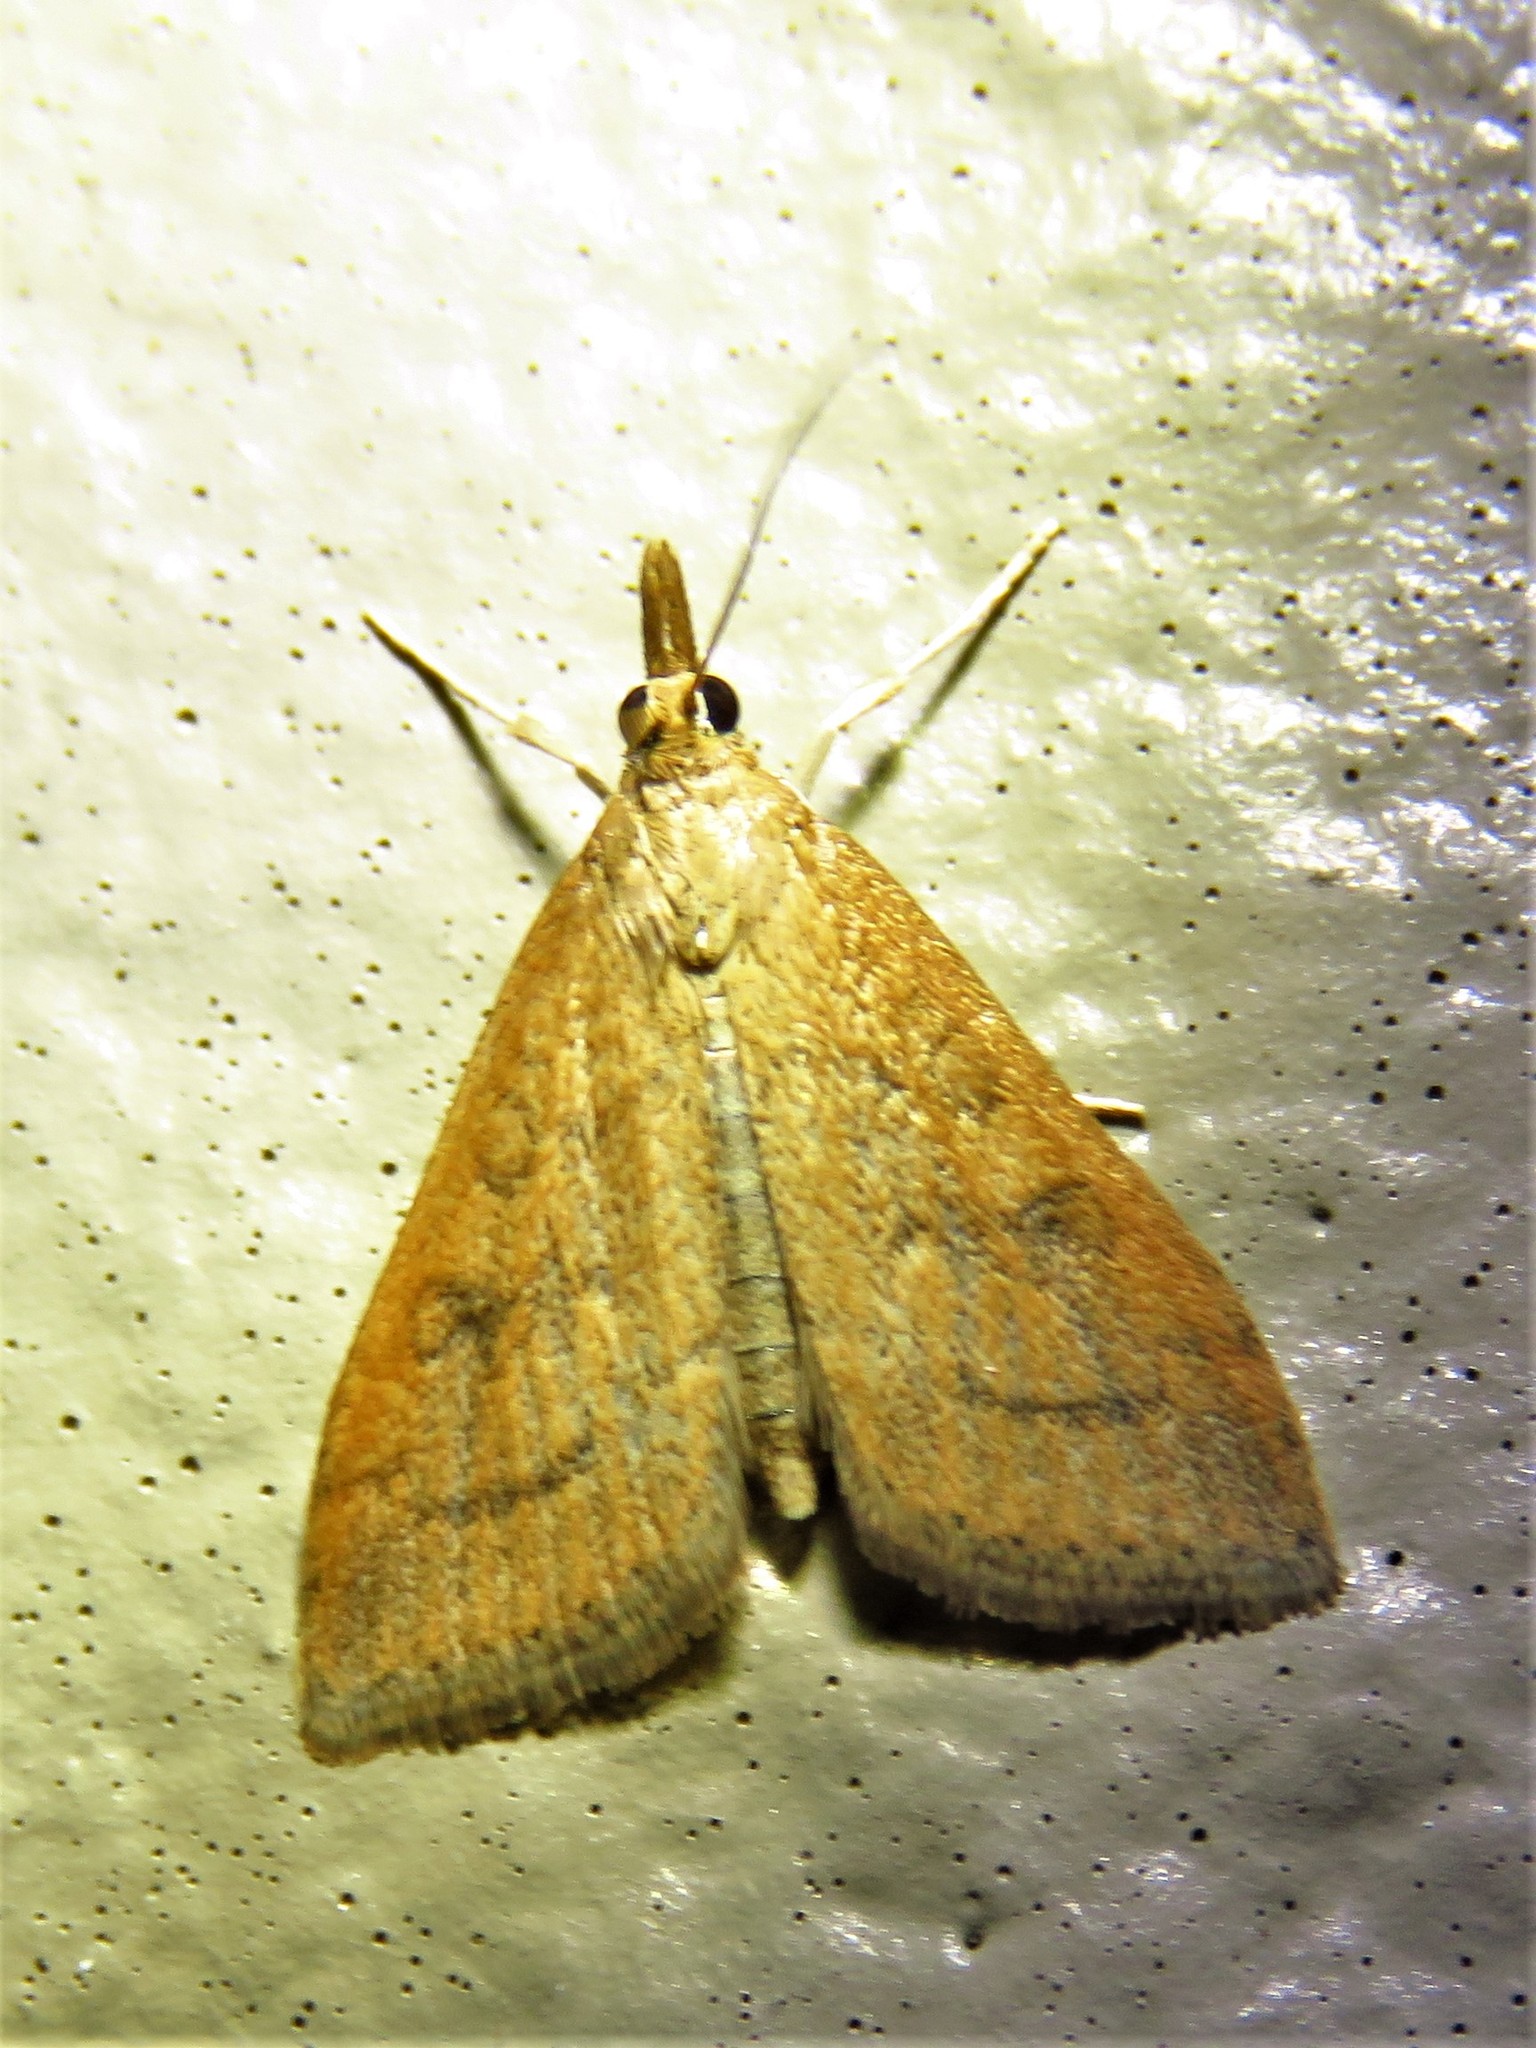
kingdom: Animalia
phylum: Arthropoda
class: Insecta
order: Lepidoptera
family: Crambidae
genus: Udea
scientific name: Udea rubigalis
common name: Celery leaftier moth
